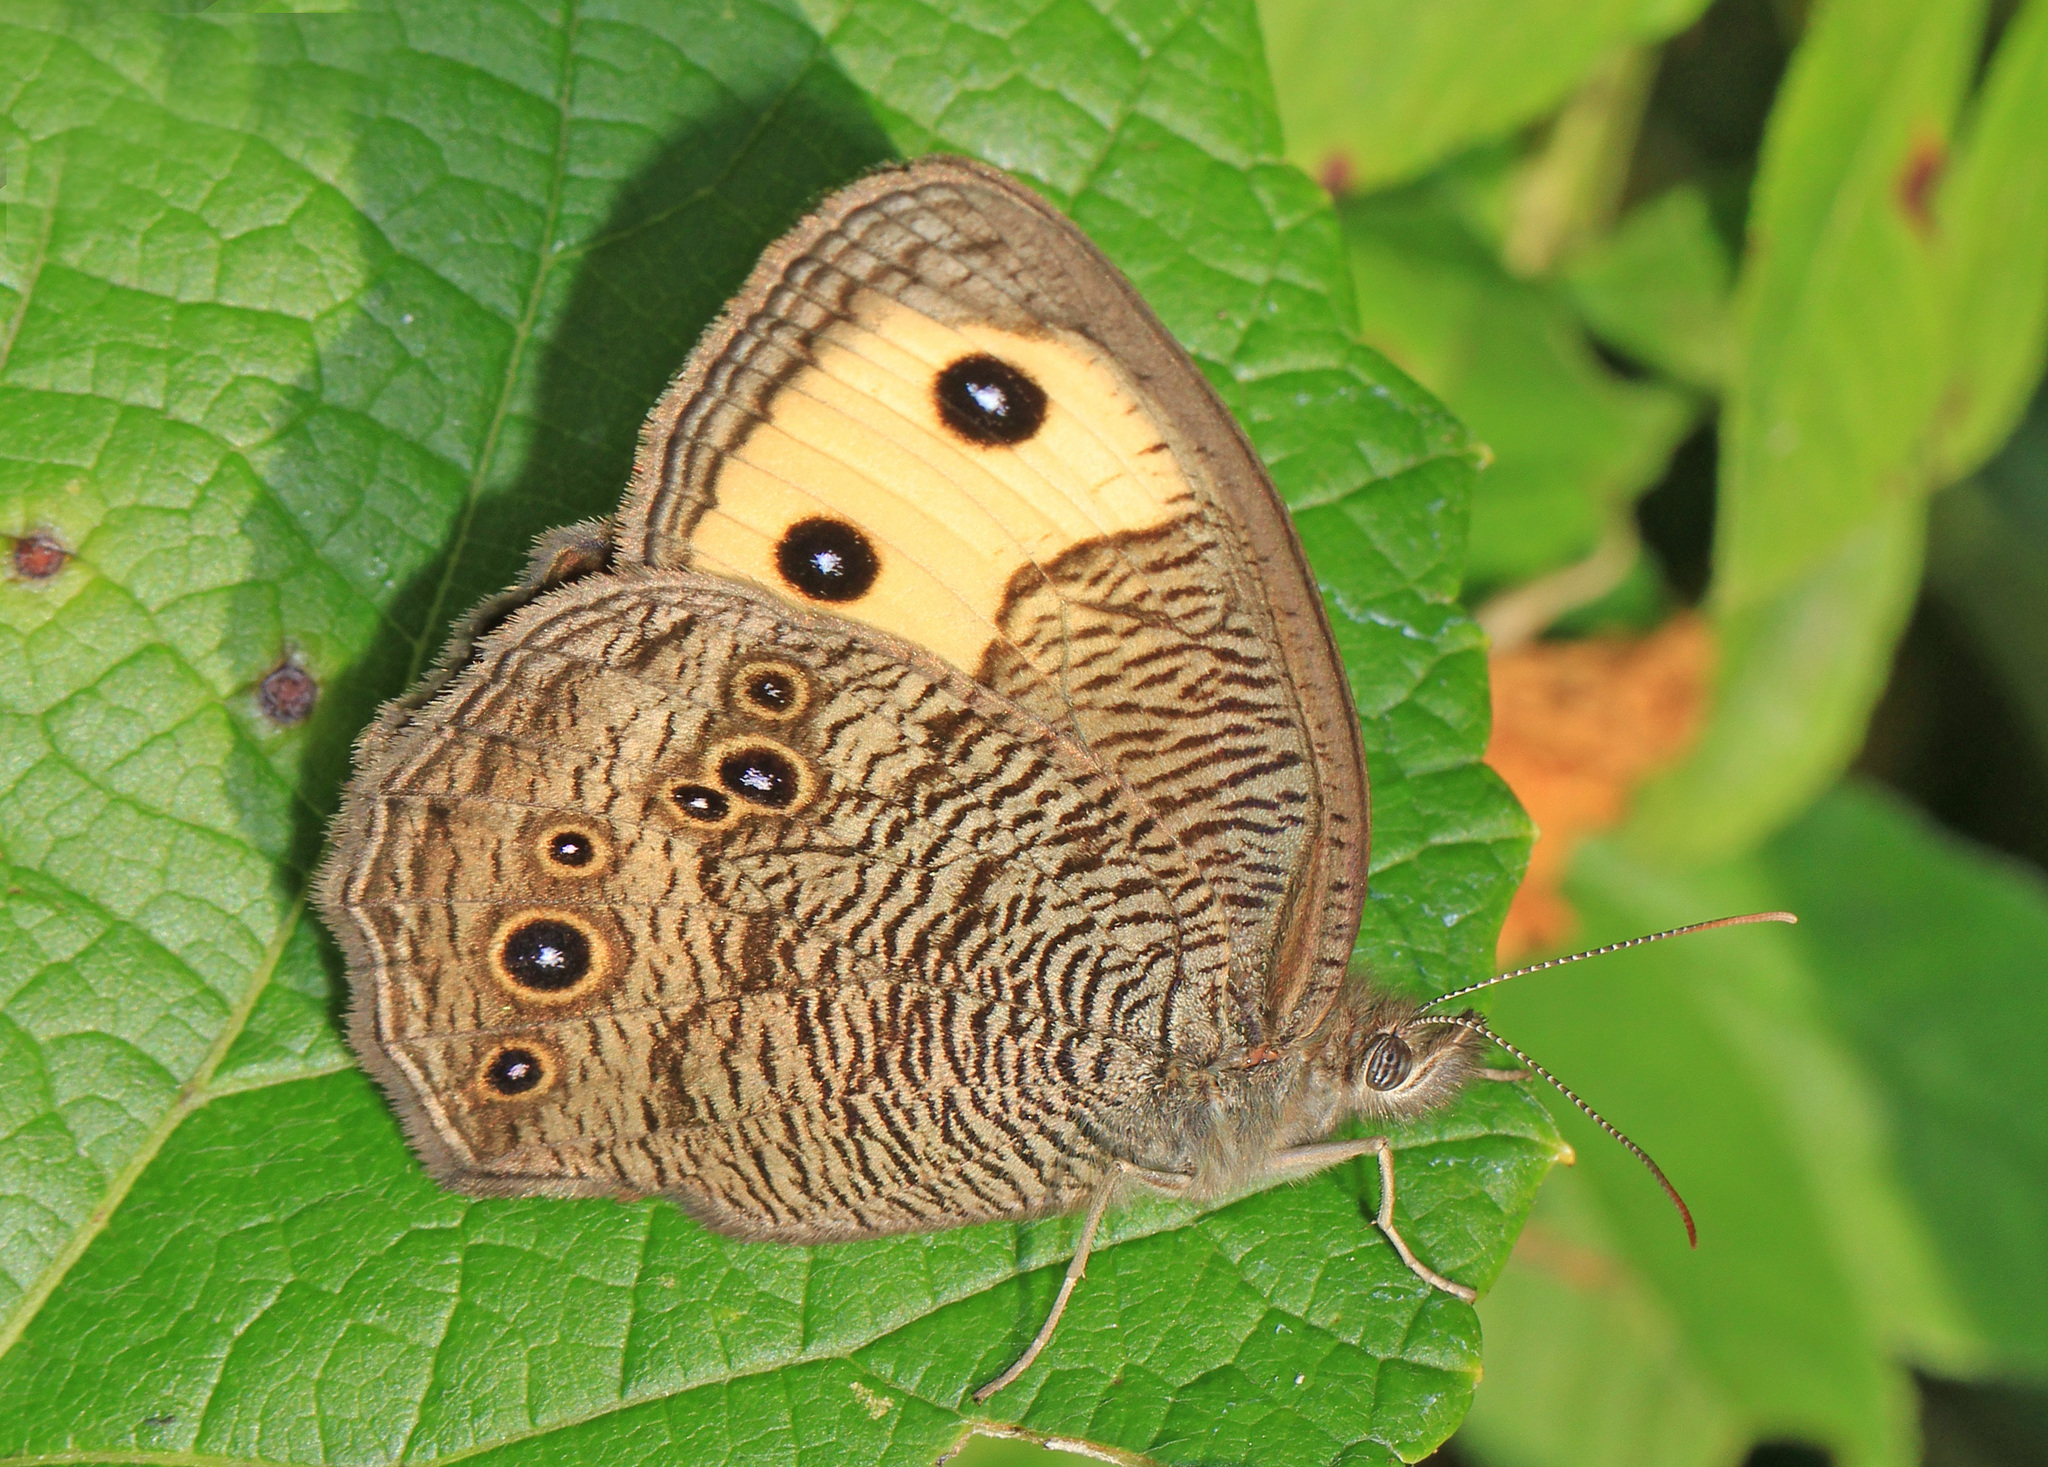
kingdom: Animalia
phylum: Arthropoda
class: Insecta
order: Lepidoptera
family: Nymphalidae
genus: Cercyonis
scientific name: Cercyonis pegala
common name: Common wood-nymph
